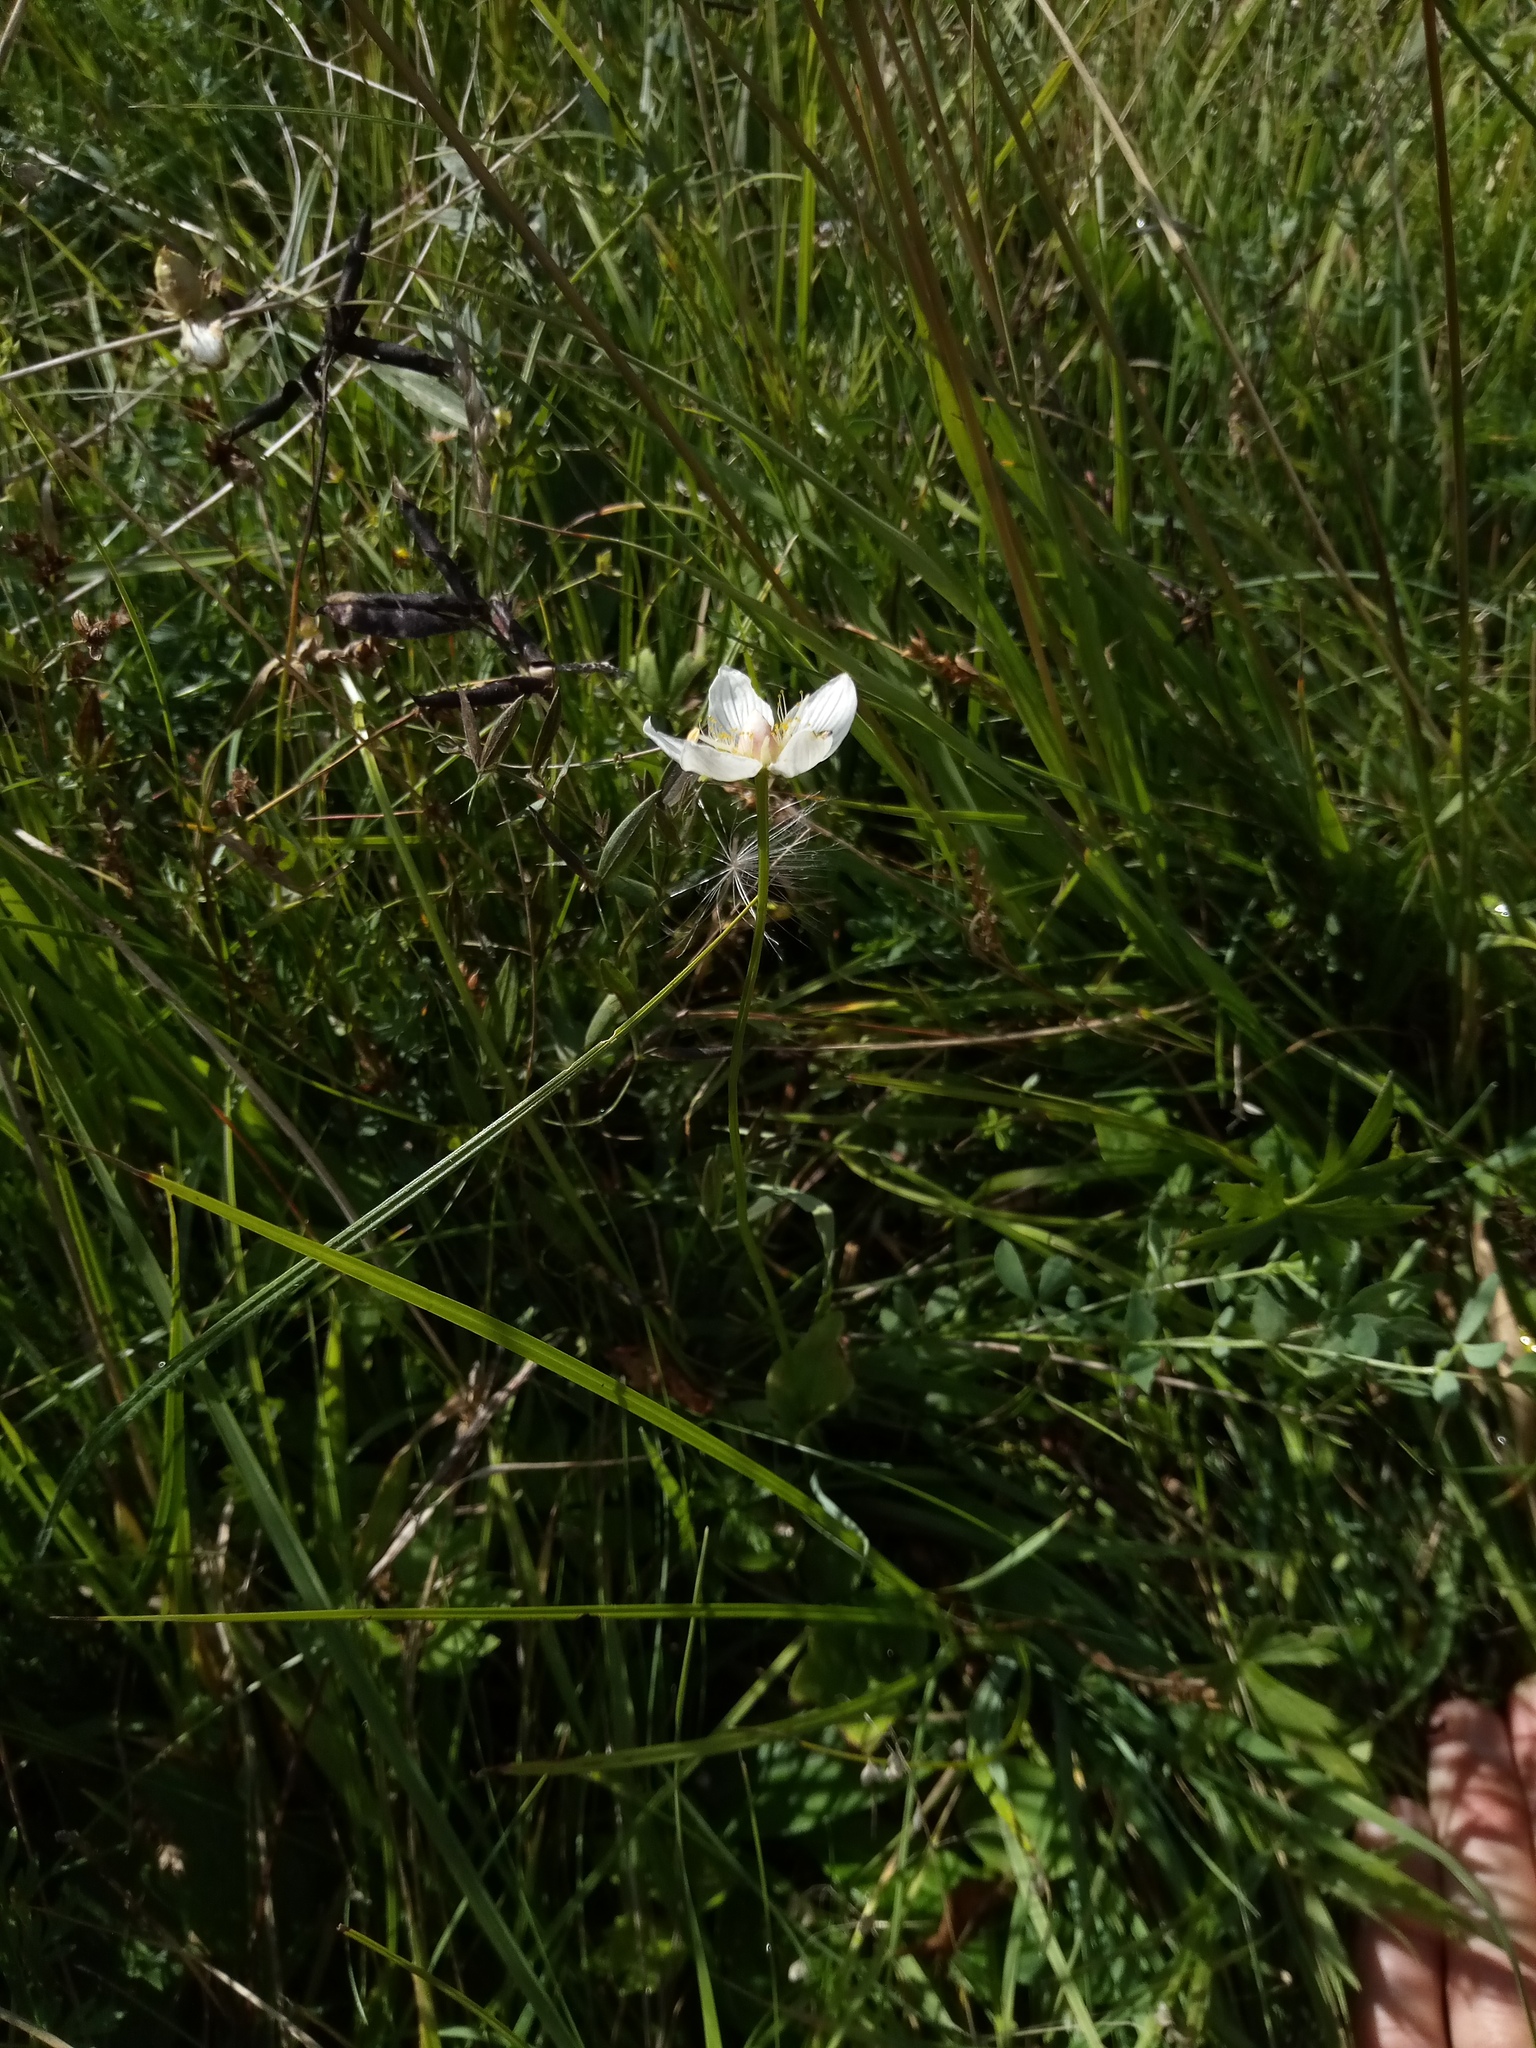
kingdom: Plantae
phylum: Tracheophyta
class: Magnoliopsida
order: Celastrales
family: Parnassiaceae
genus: Parnassia
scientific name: Parnassia palustris
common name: Grass-of-parnassus
